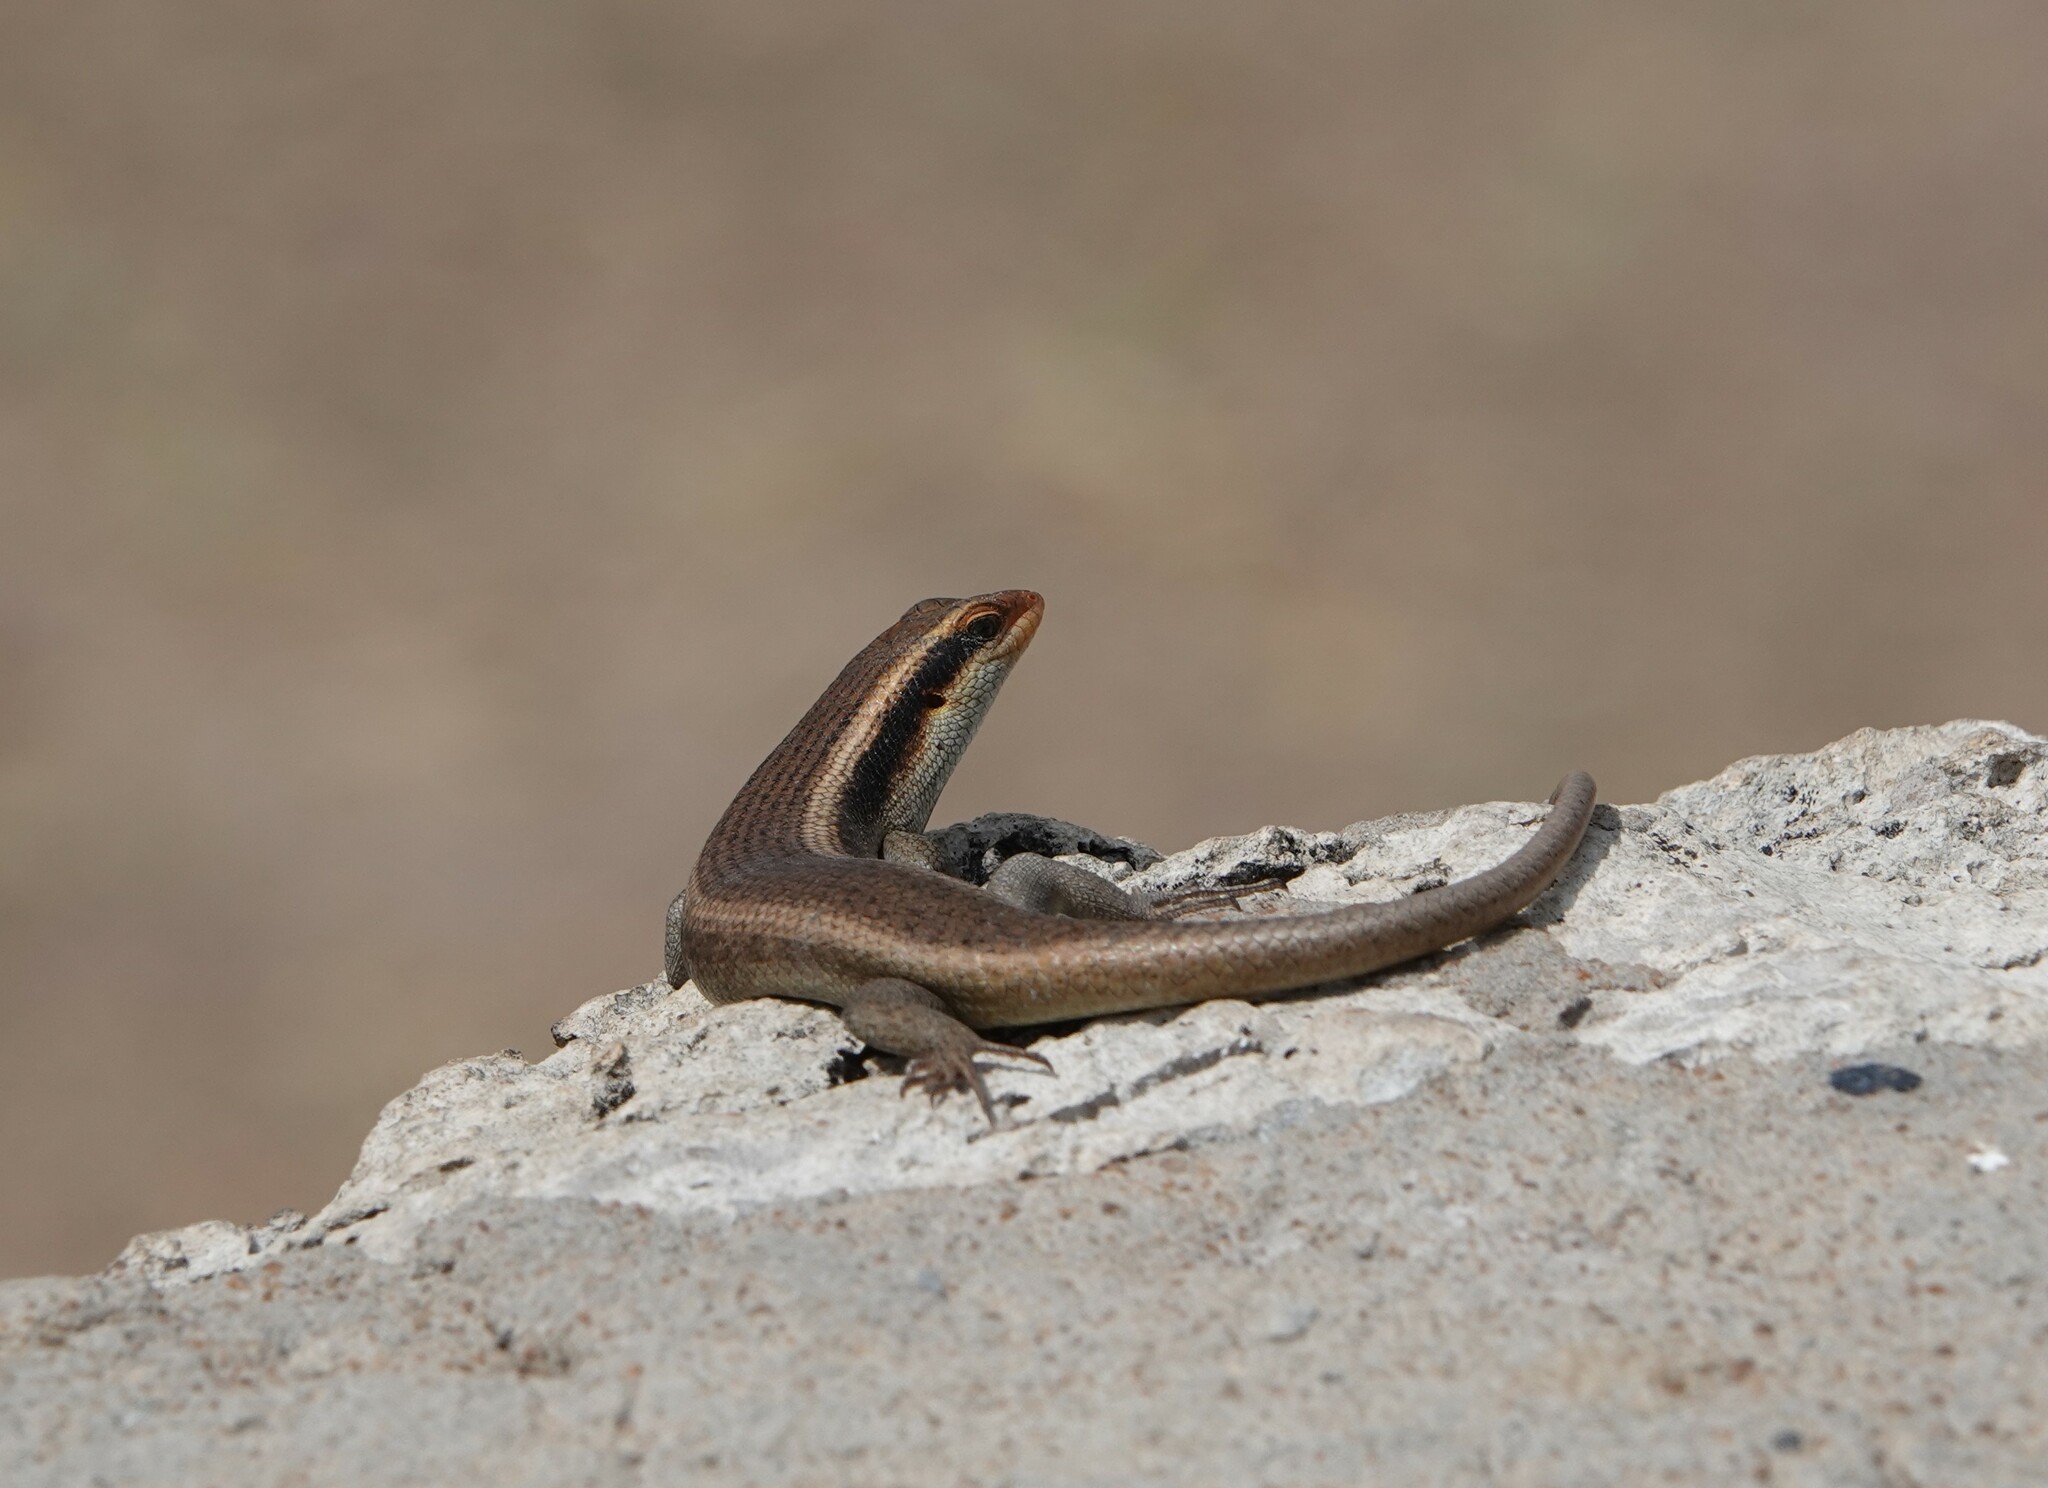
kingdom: Animalia
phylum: Chordata
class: Squamata
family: Scincidae
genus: Trachylepis
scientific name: Trachylepis wahlbergii
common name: Wahlberg’s striped skink
